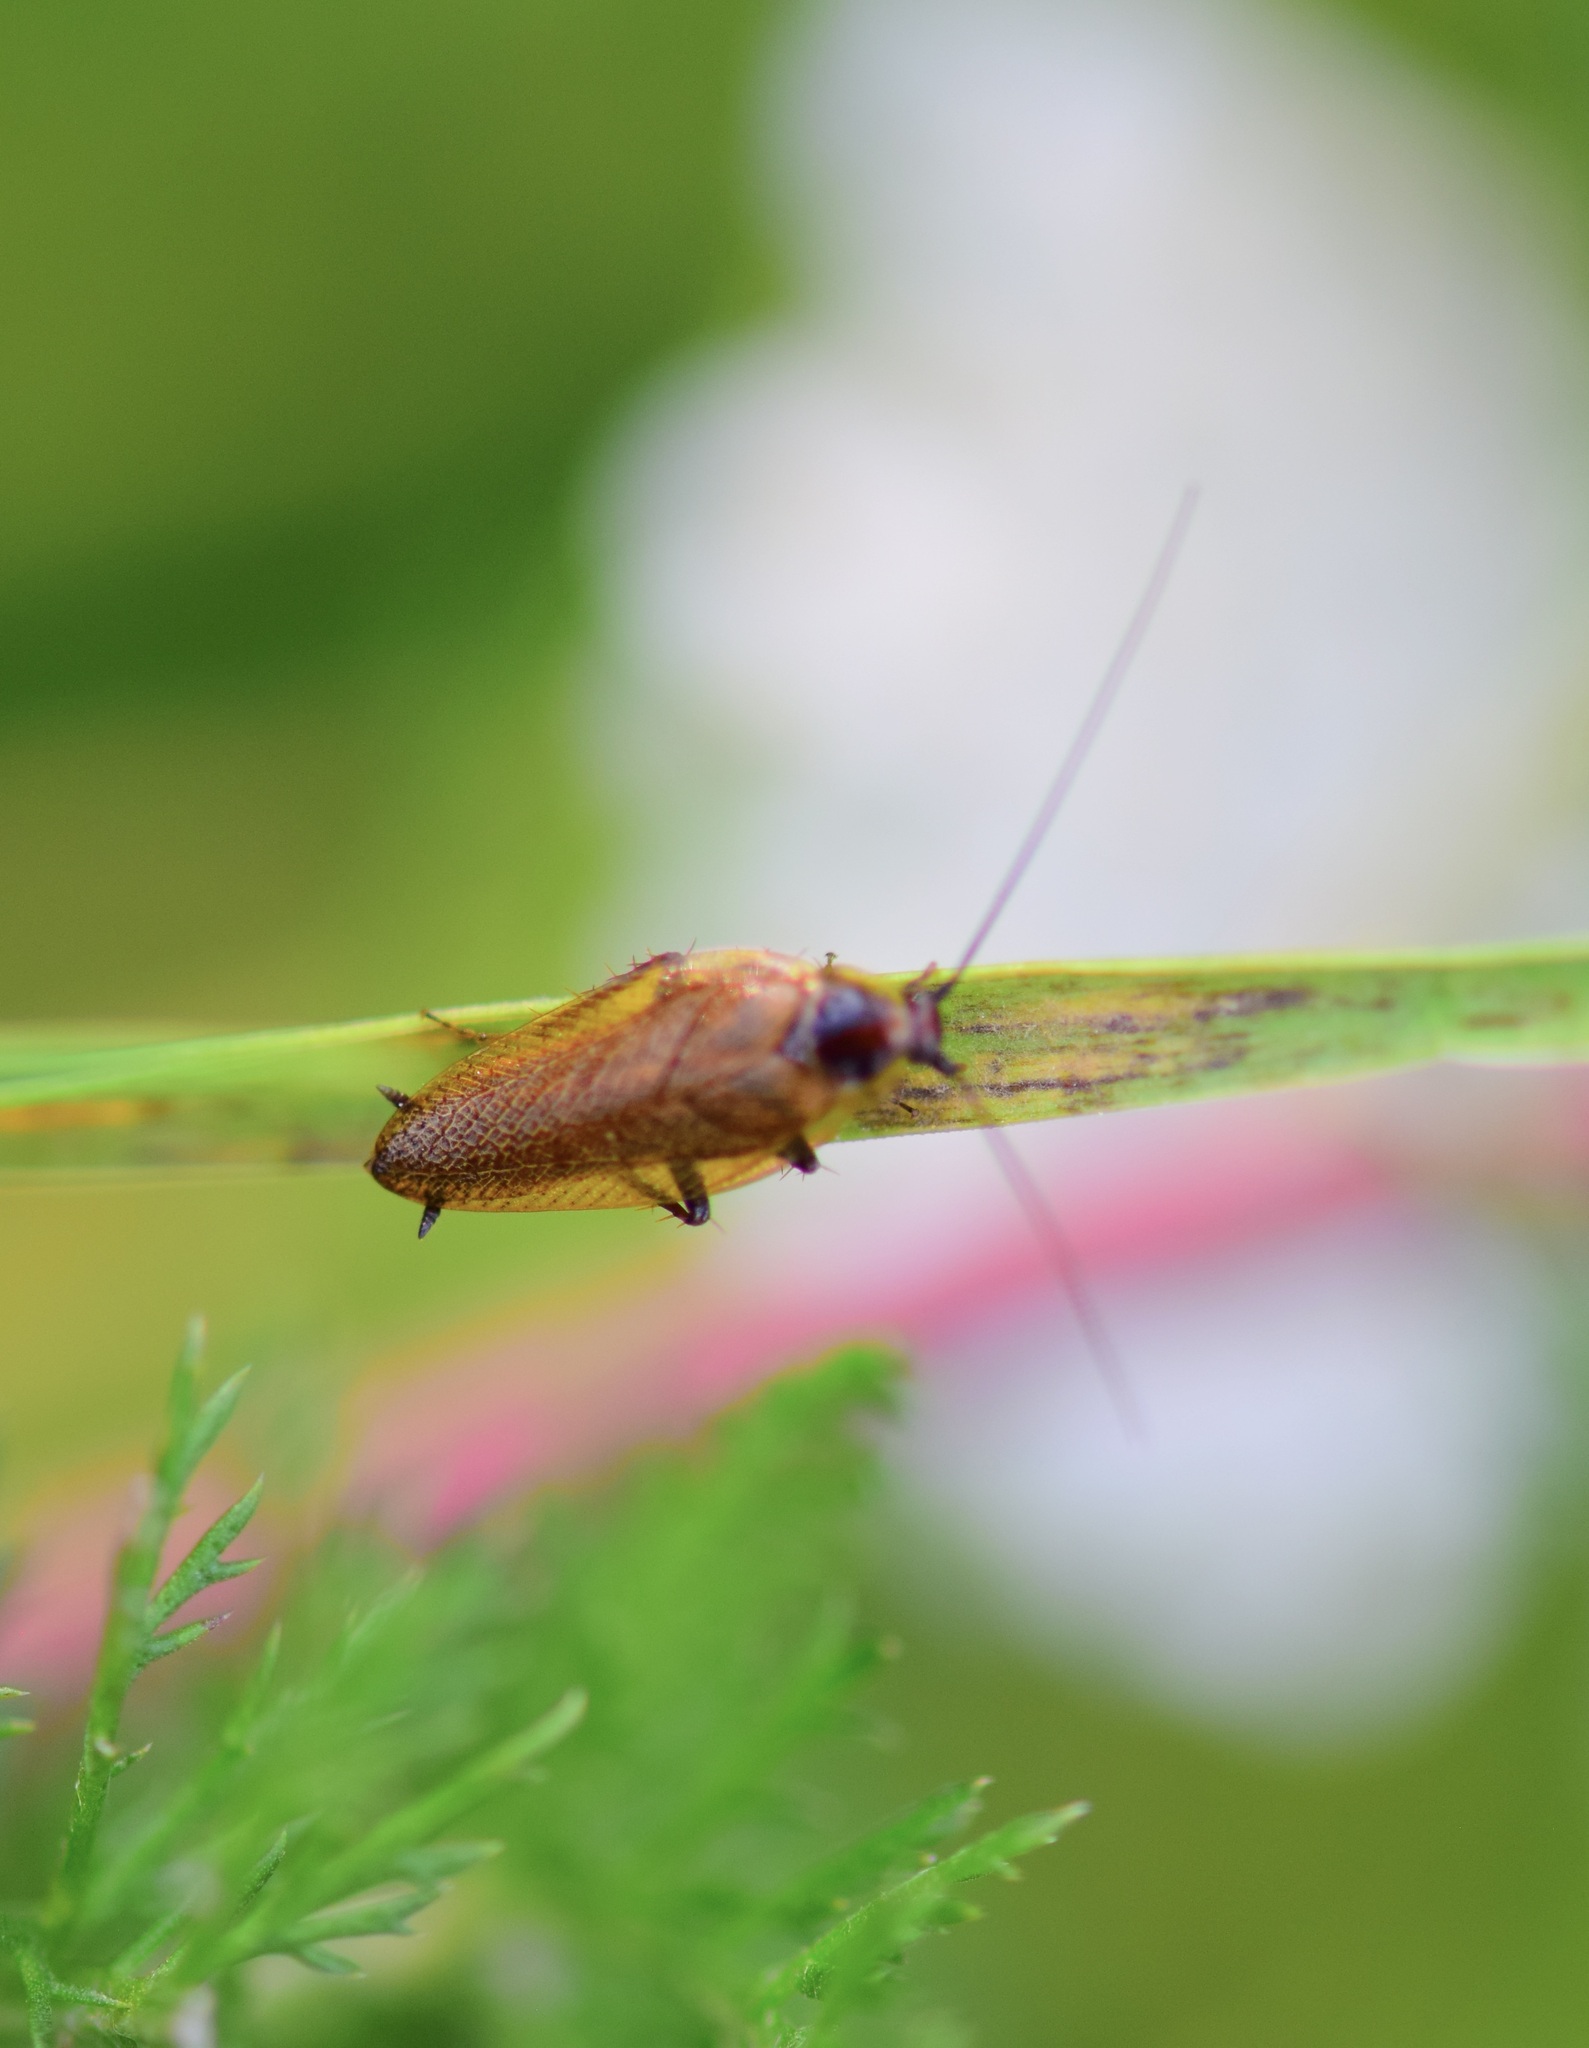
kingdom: Animalia
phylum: Arthropoda
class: Insecta
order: Blattodea
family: Ectobiidae
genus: Ectobius
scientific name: Ectobius lapponicus
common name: Dusky cockroach
